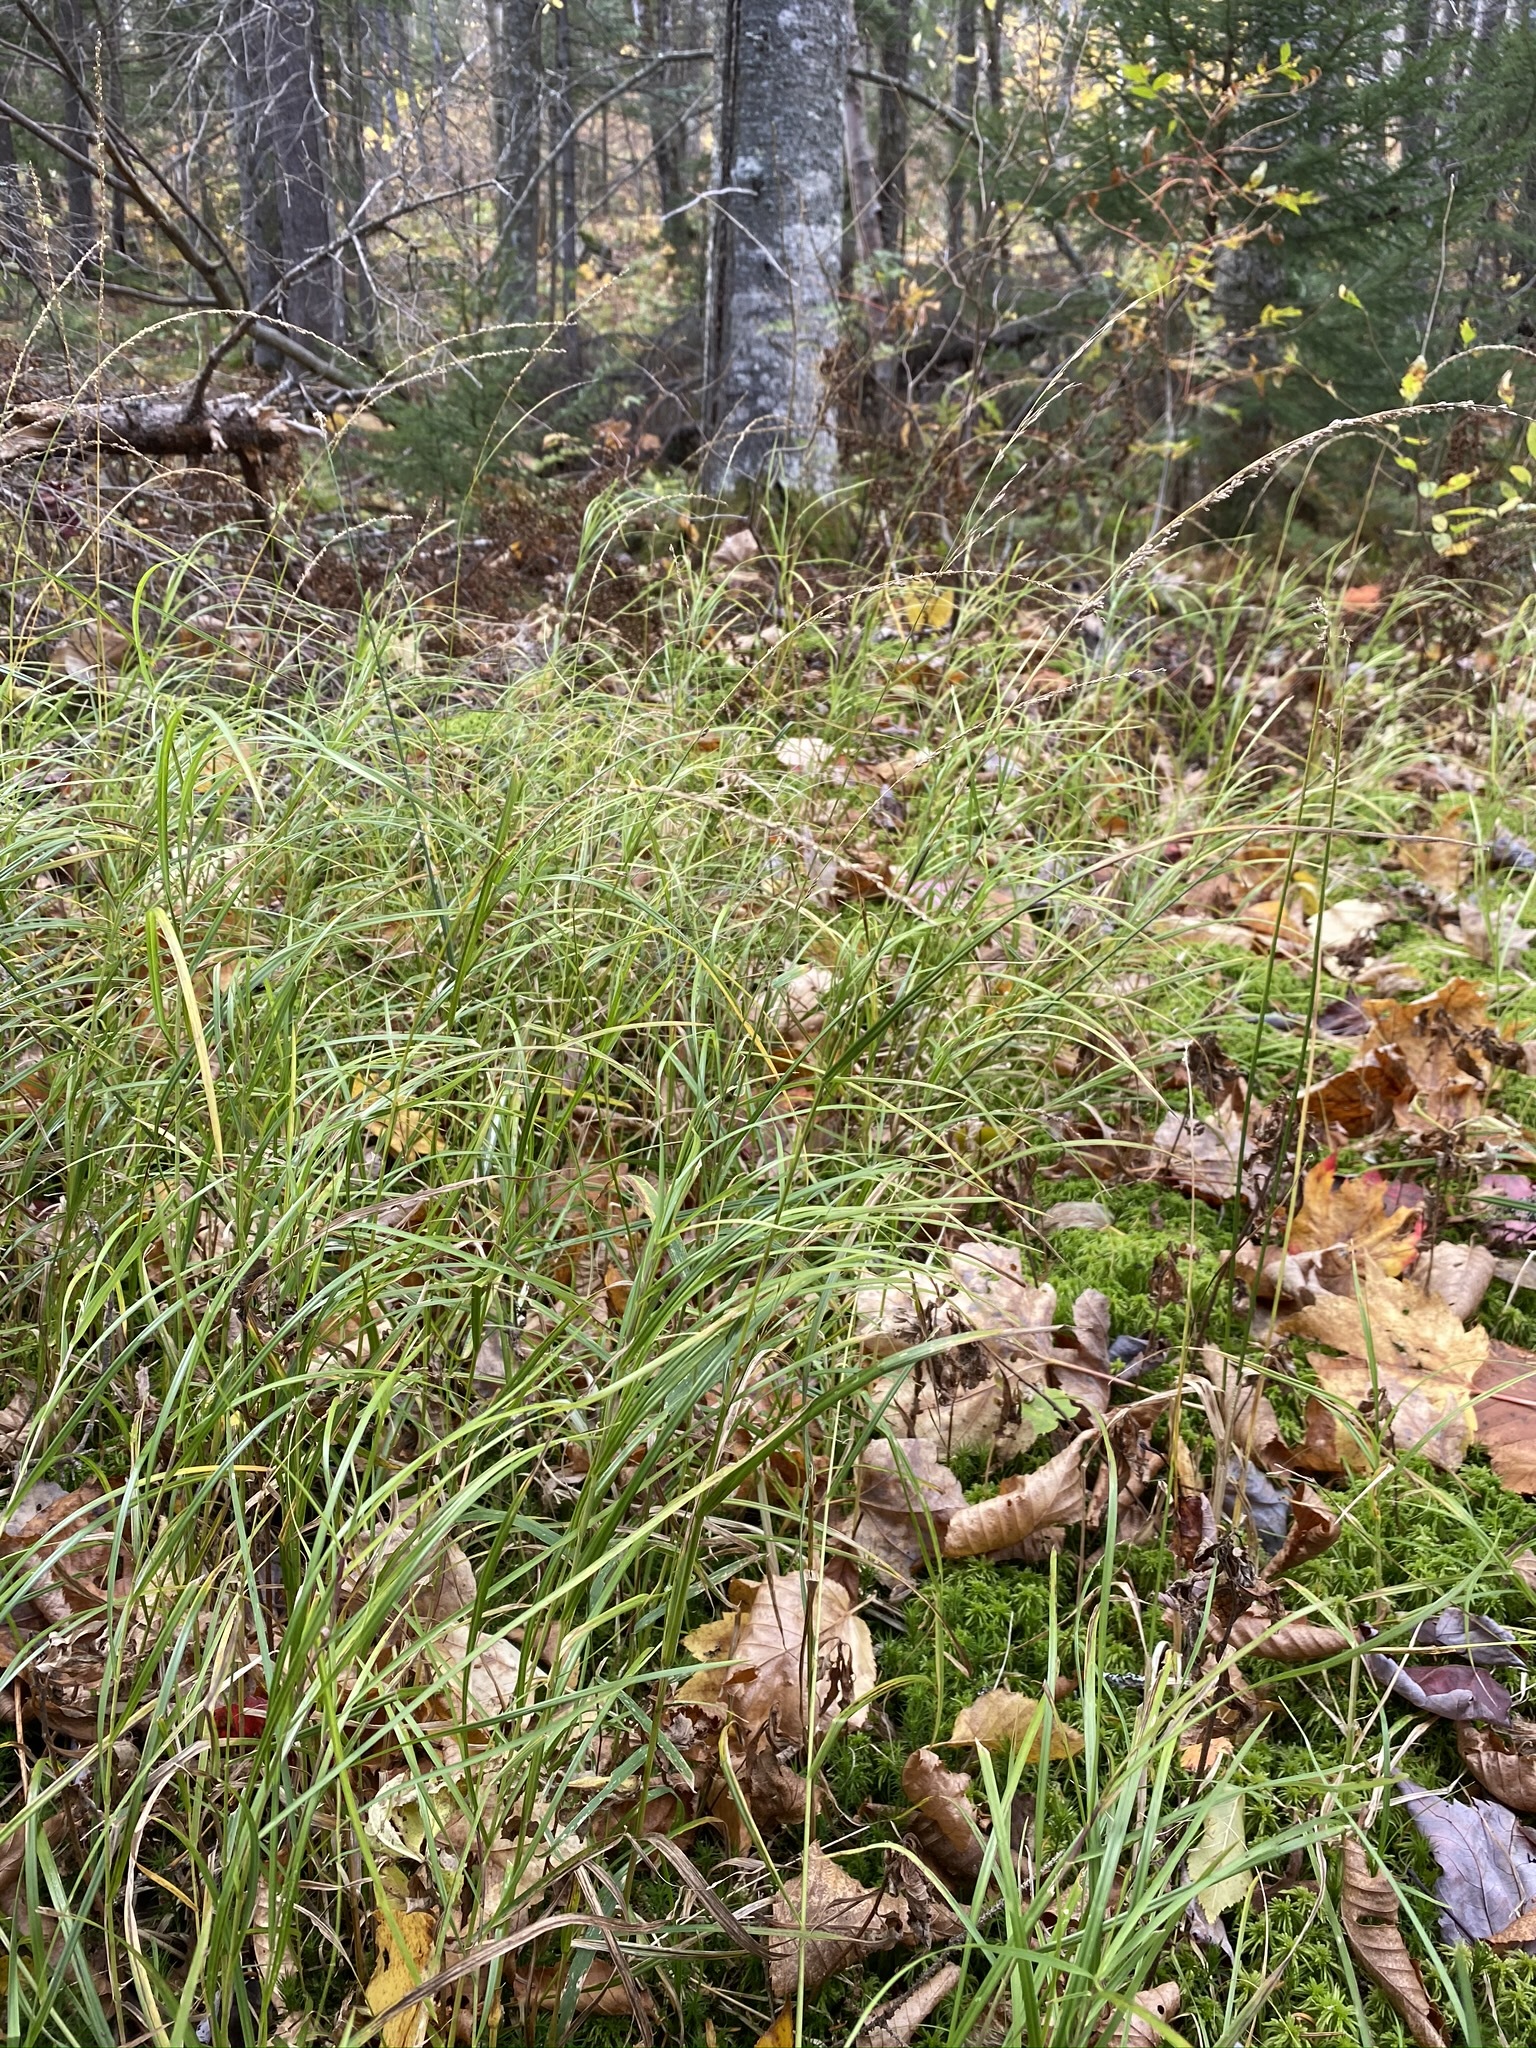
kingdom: Plantae
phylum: Tracheophyta
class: Liliopsida
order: Poales
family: Poaceae
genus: Glyceria
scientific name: Glyceria melicaria
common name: Long mannagrass
